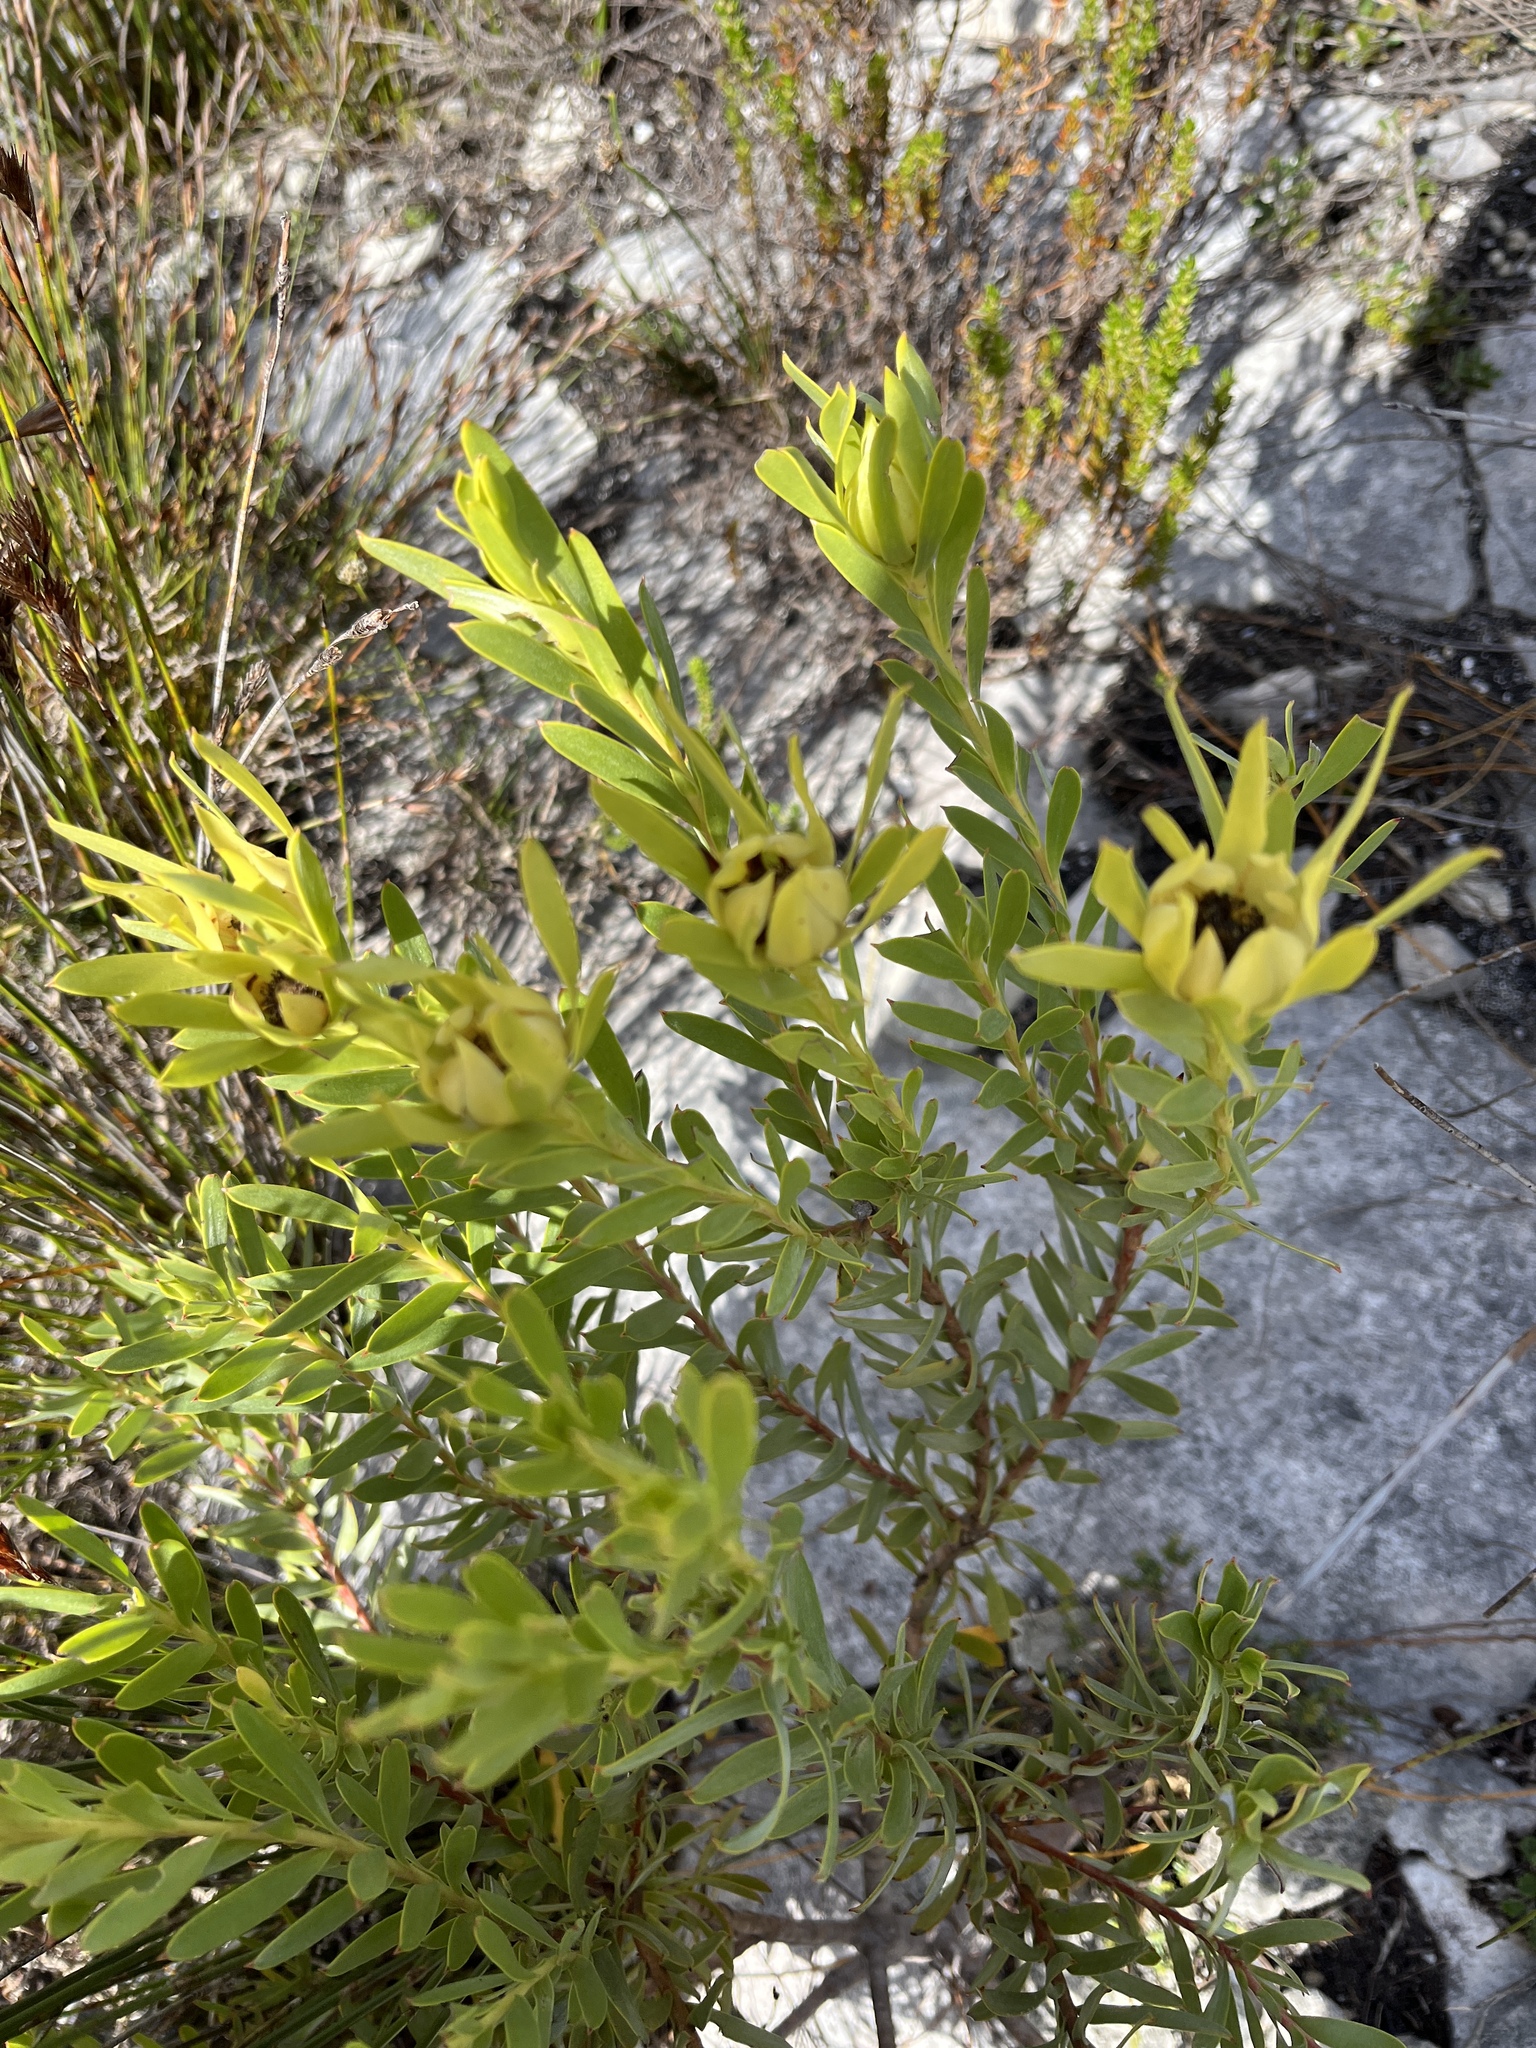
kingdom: Plantae
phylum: Tracheophyta
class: Magnoliopsida
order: Proteales
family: Proteaceae
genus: Leucadendron
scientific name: Leucadendron meridianum
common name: Limestone conebush
